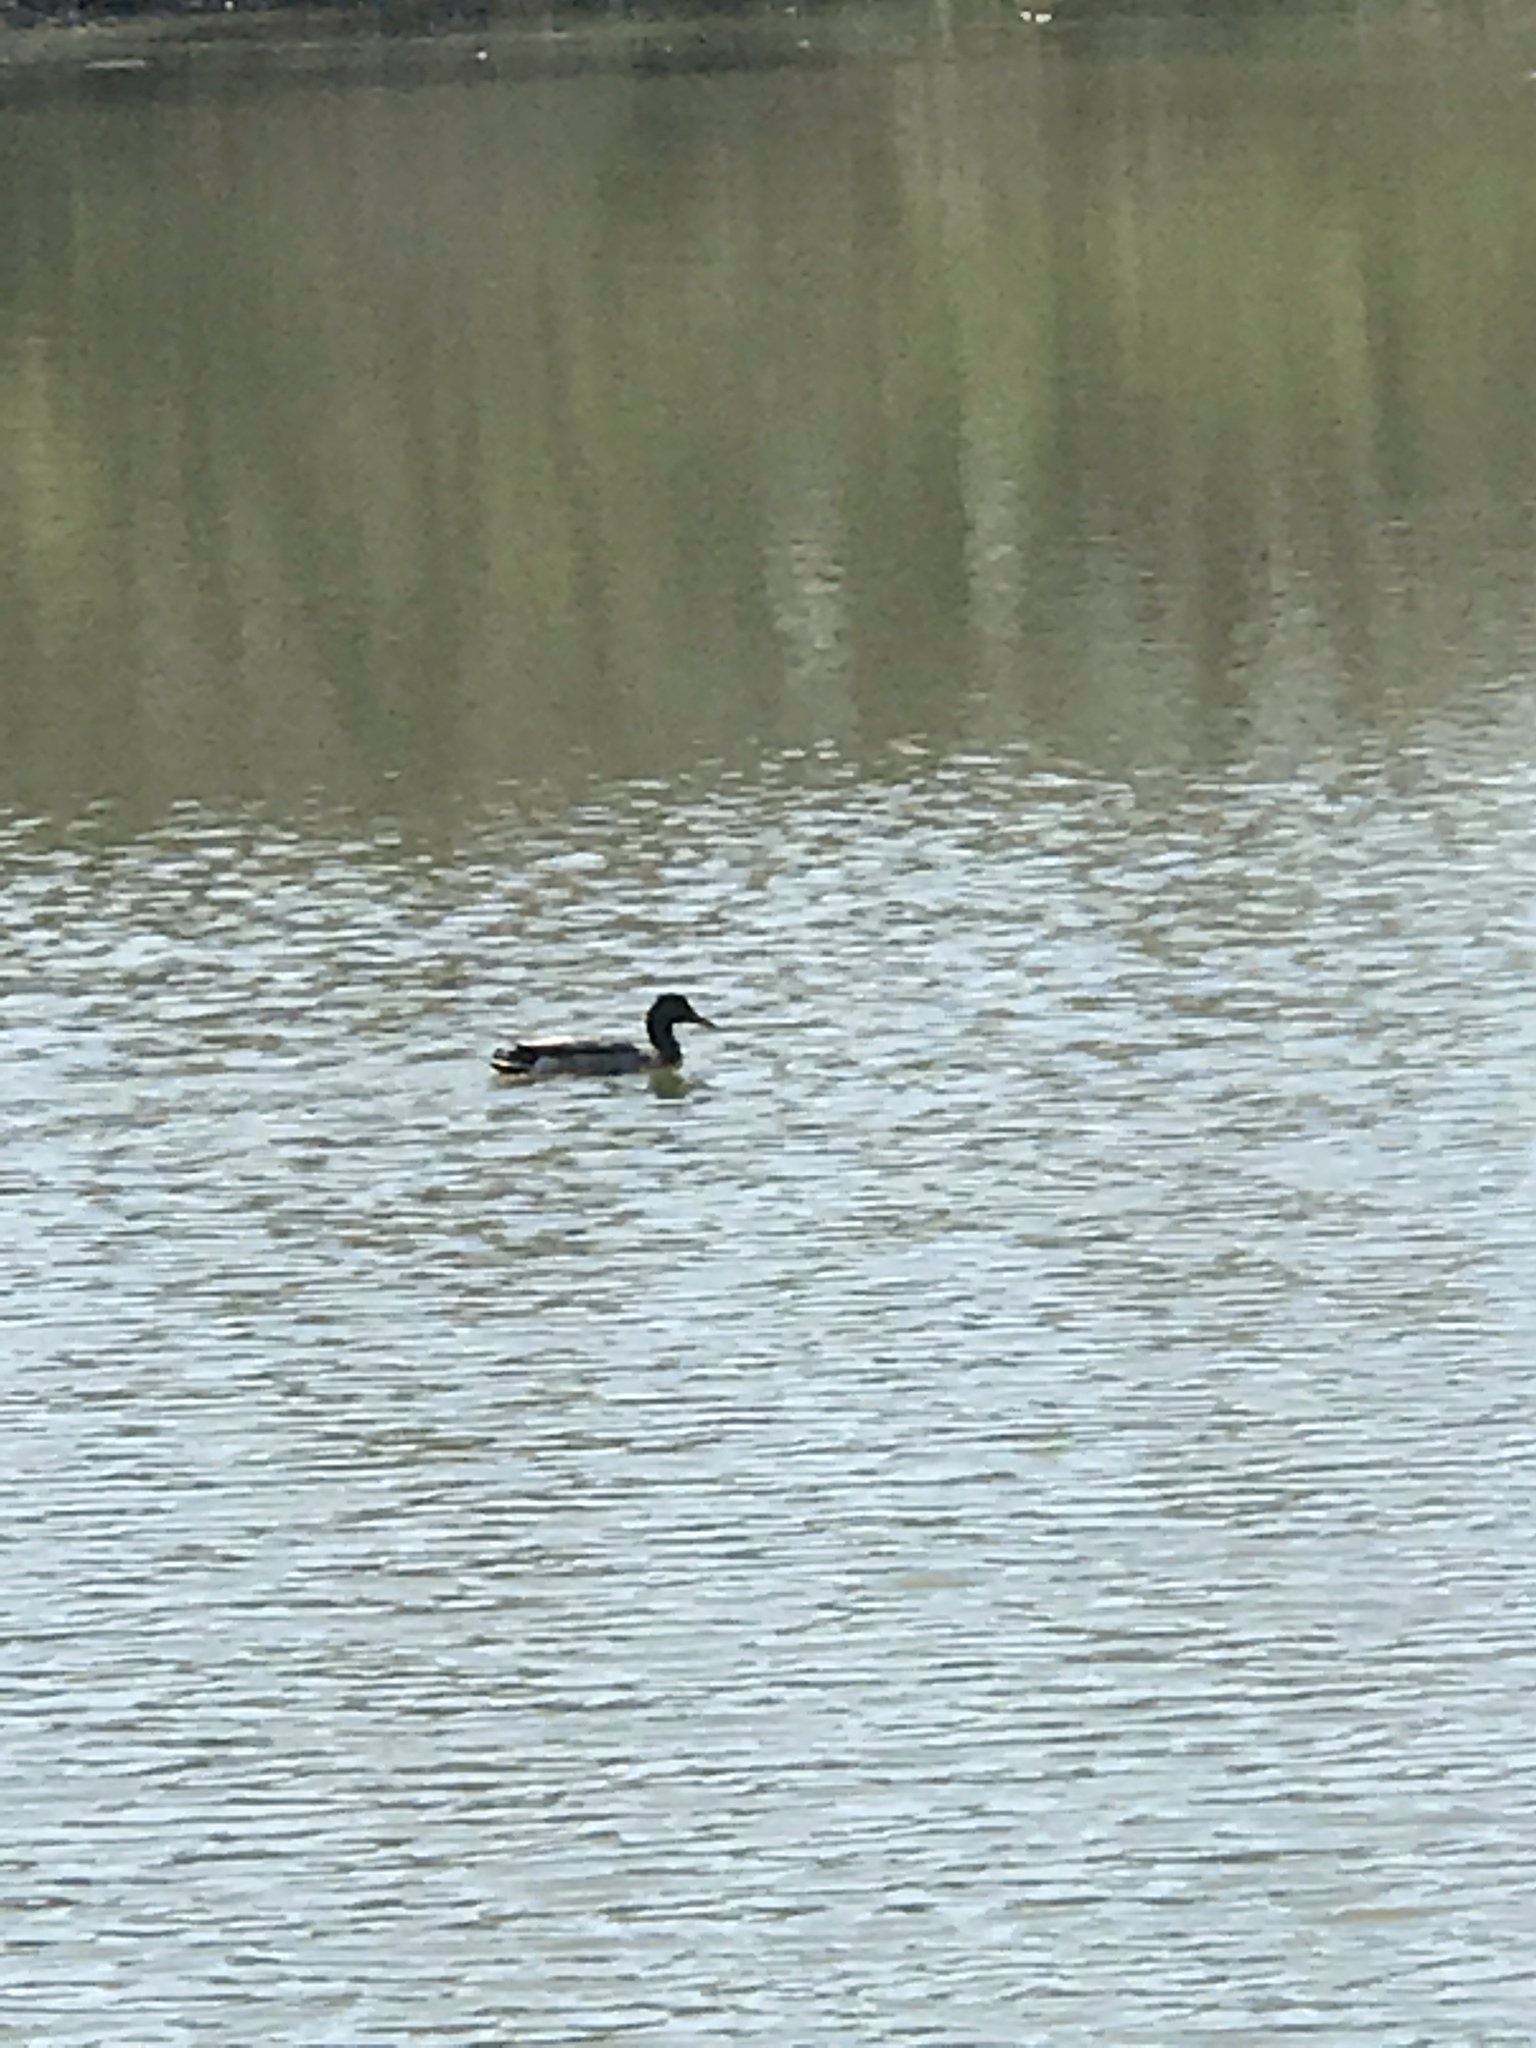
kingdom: Animalia
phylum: Chordata
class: Aves
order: Anseriformes
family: Anatidae
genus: Anas
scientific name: Anas platyrhynchos
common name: Mallard
